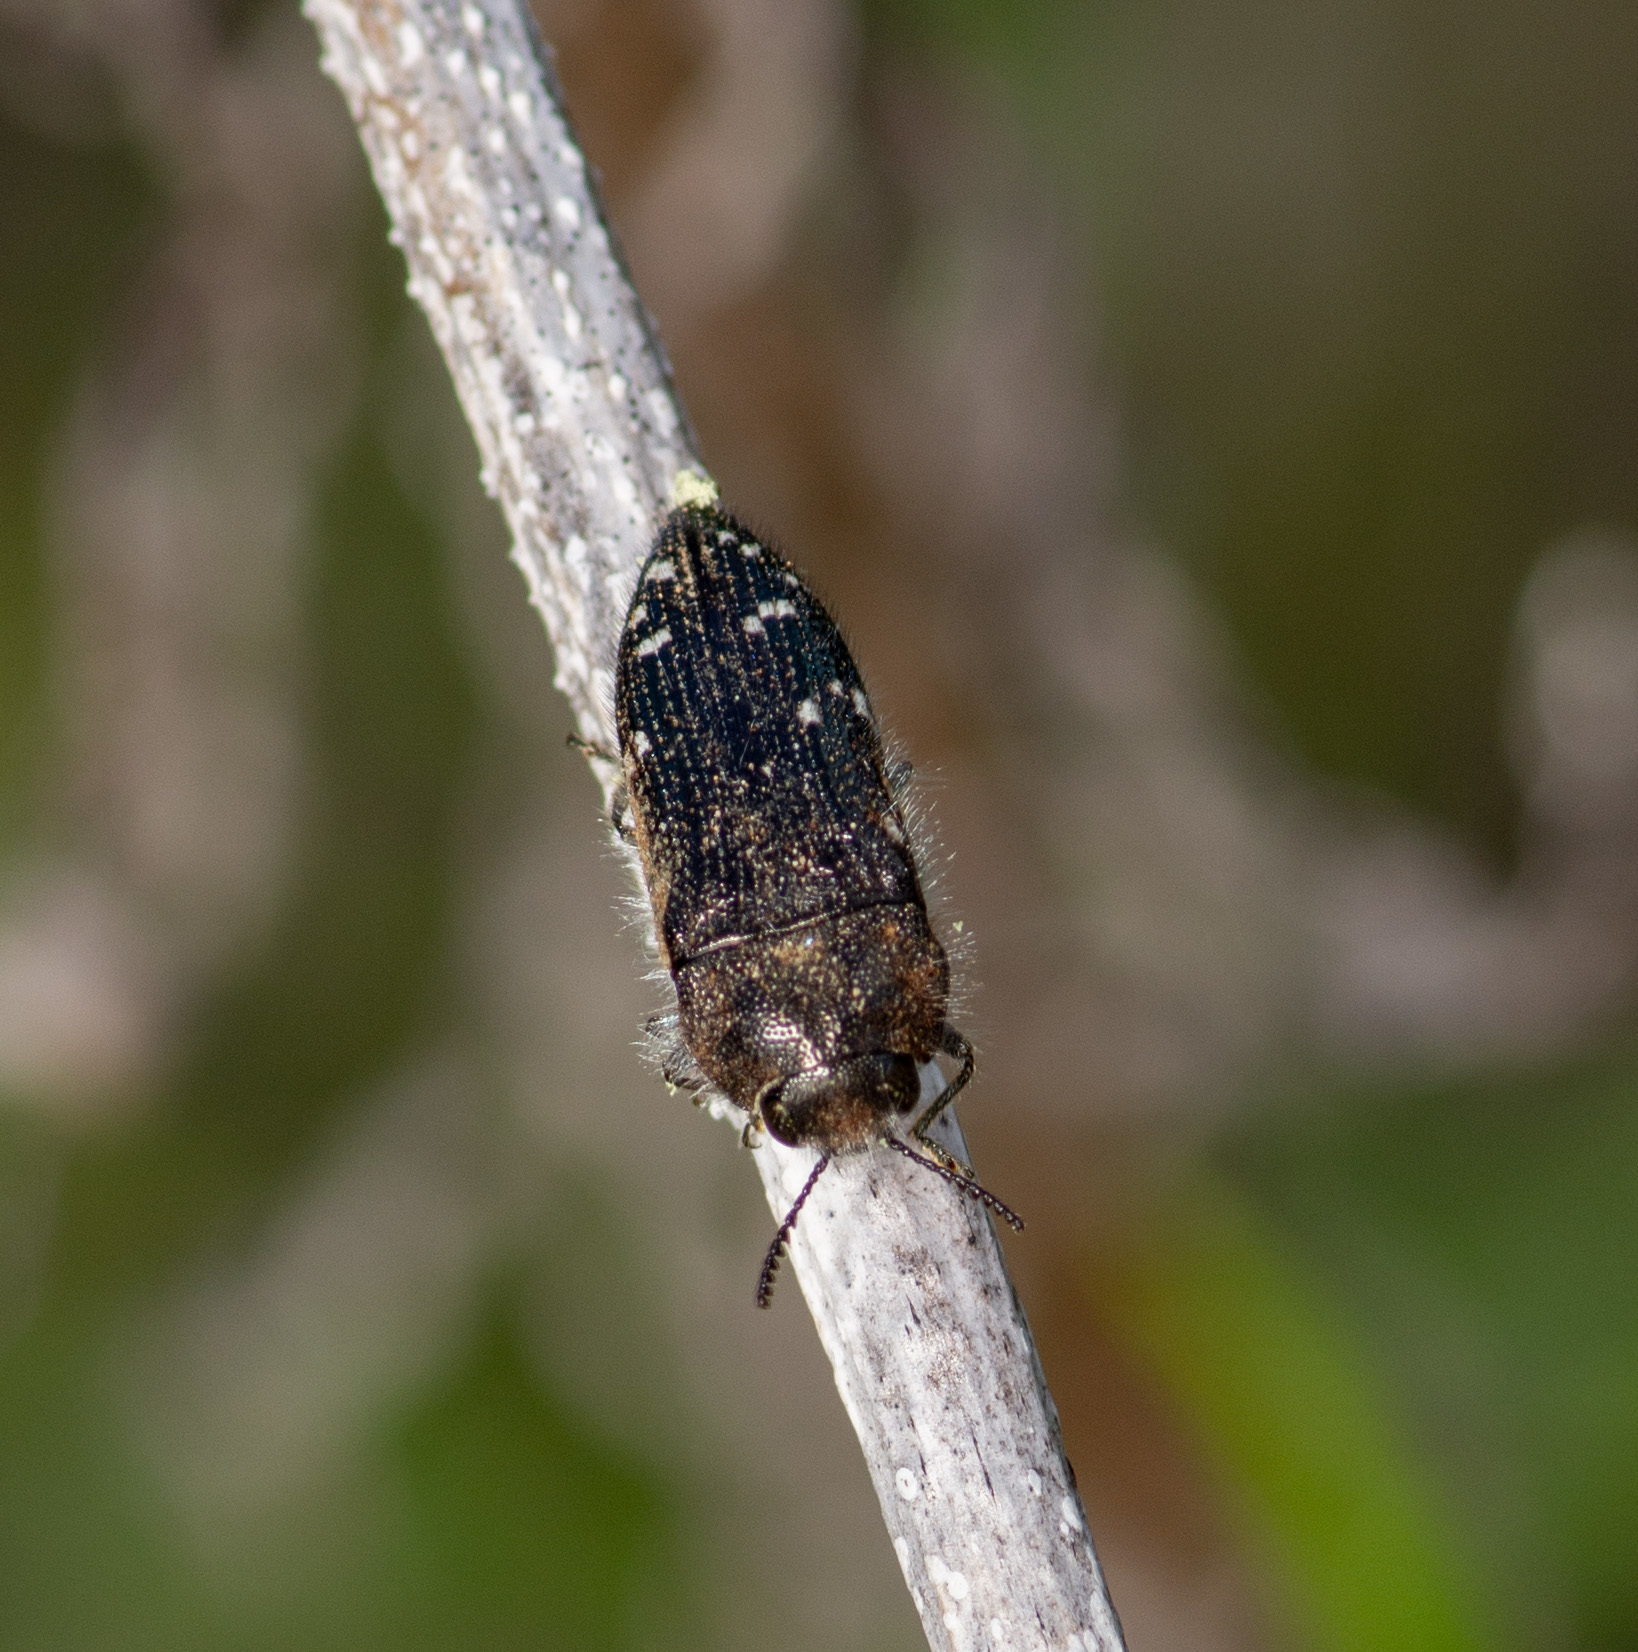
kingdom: Animalia
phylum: Arthropoda
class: Insecta
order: Coleoptera
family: Buprestidae
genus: Acmaeodera
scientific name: Acmaeodera ornatoides
